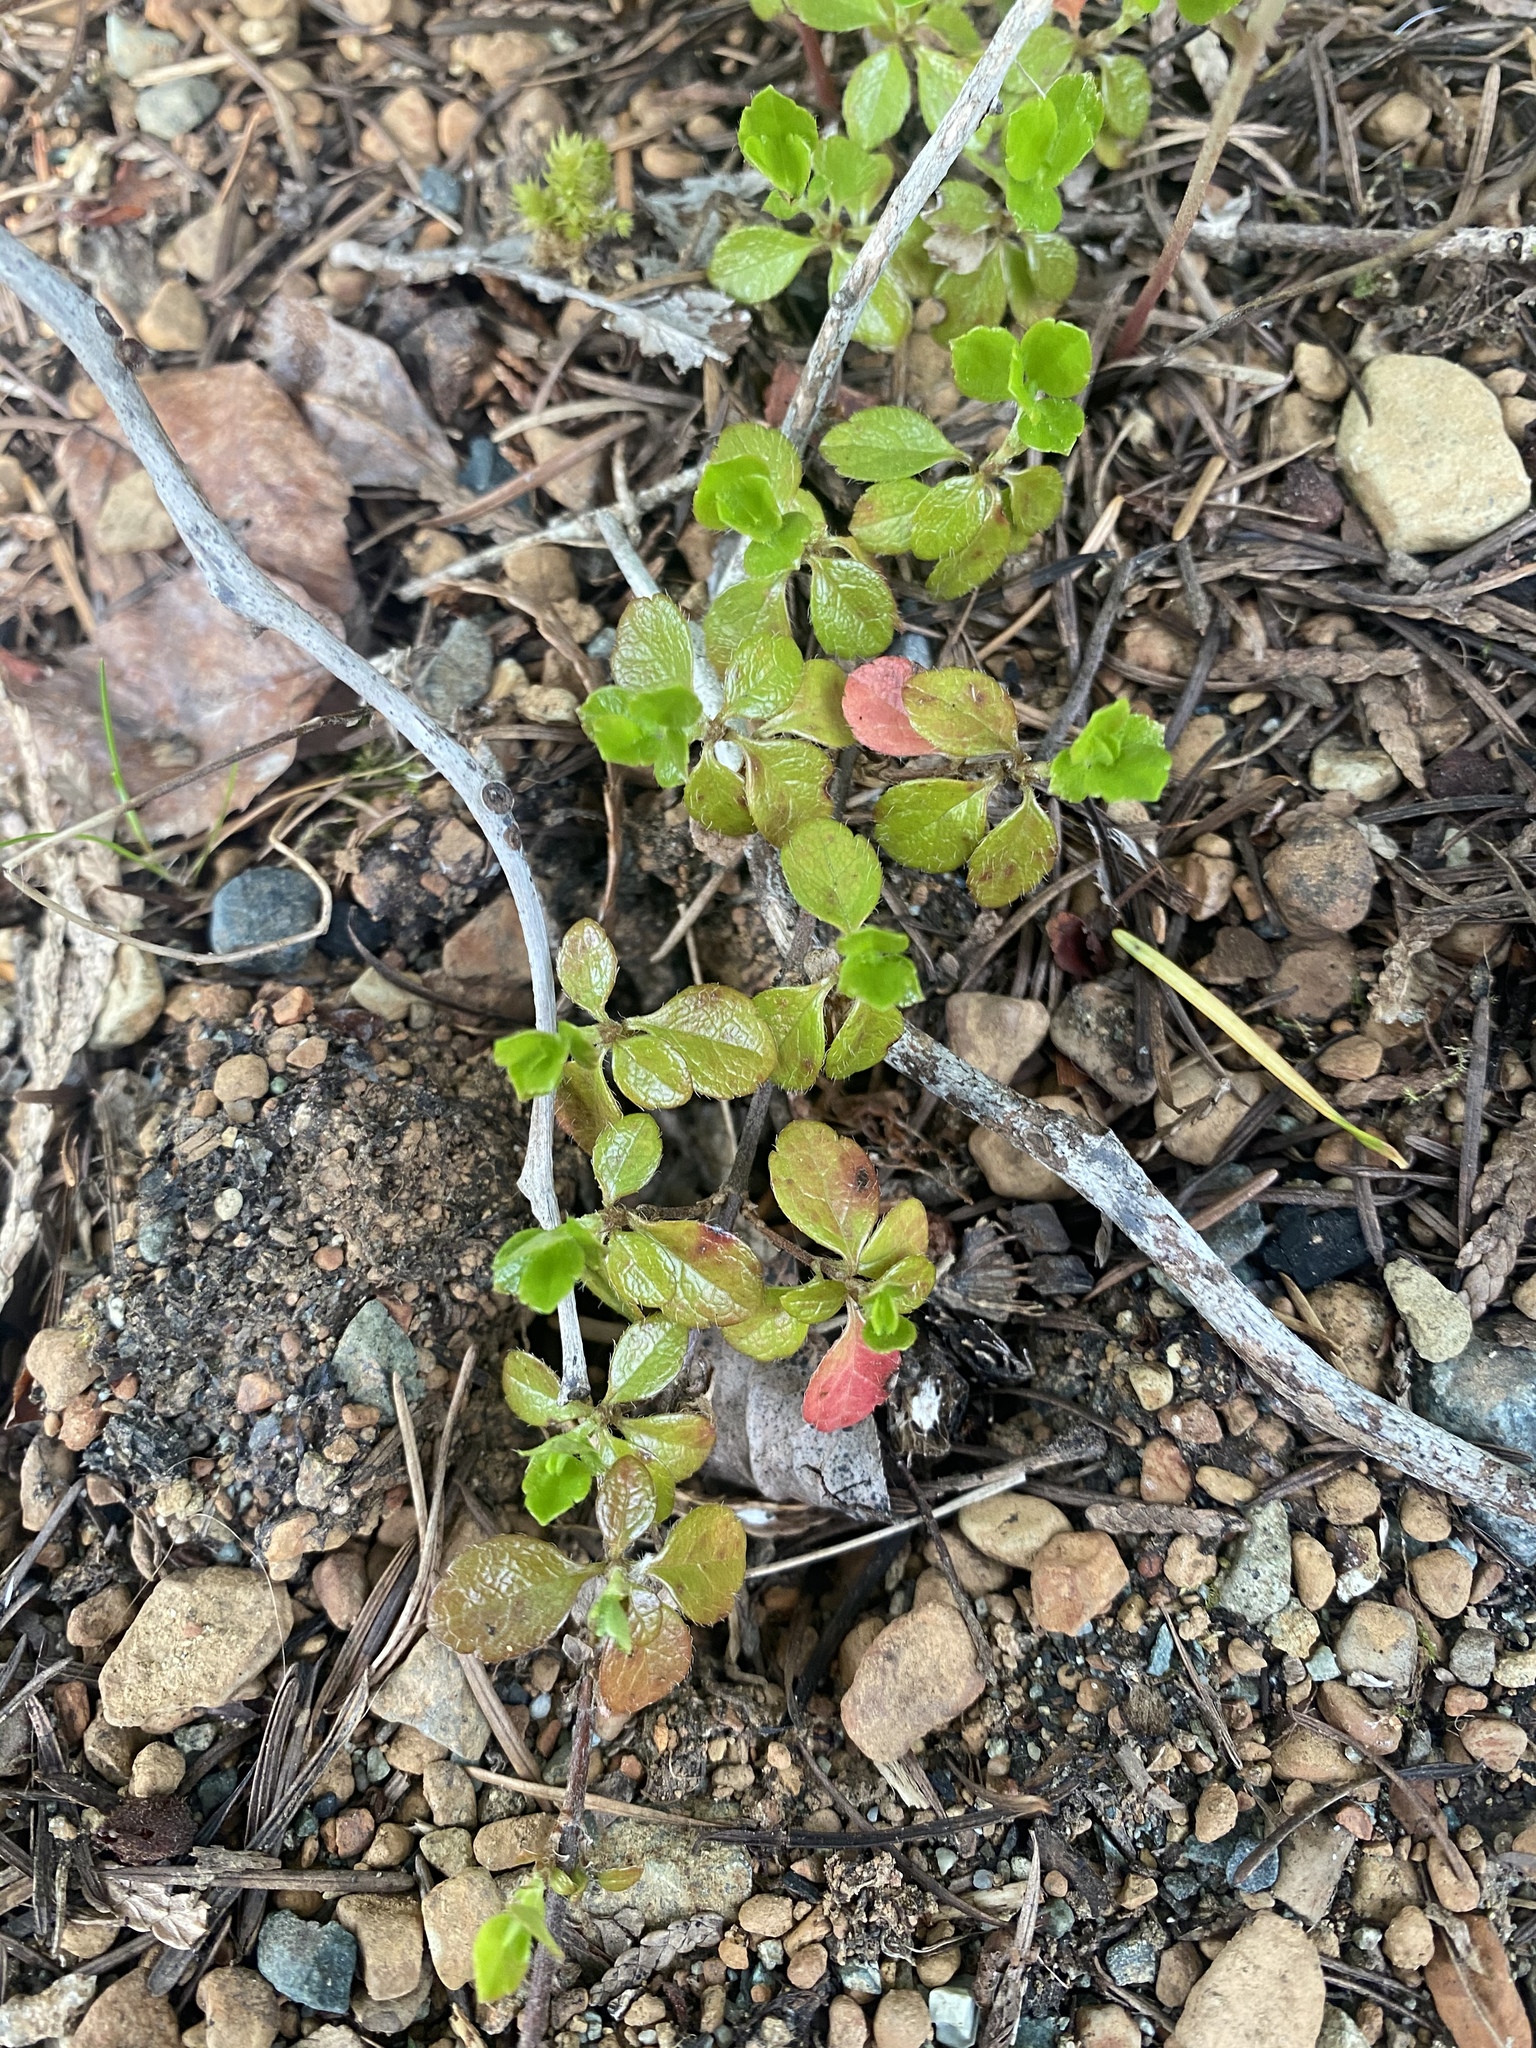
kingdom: Plantae
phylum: Tracheophyta
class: Magnoliopsida
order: Dipsacales
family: Caprifoliaceae
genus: Linnaea
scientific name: Linnaea borealis
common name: Twinflower
